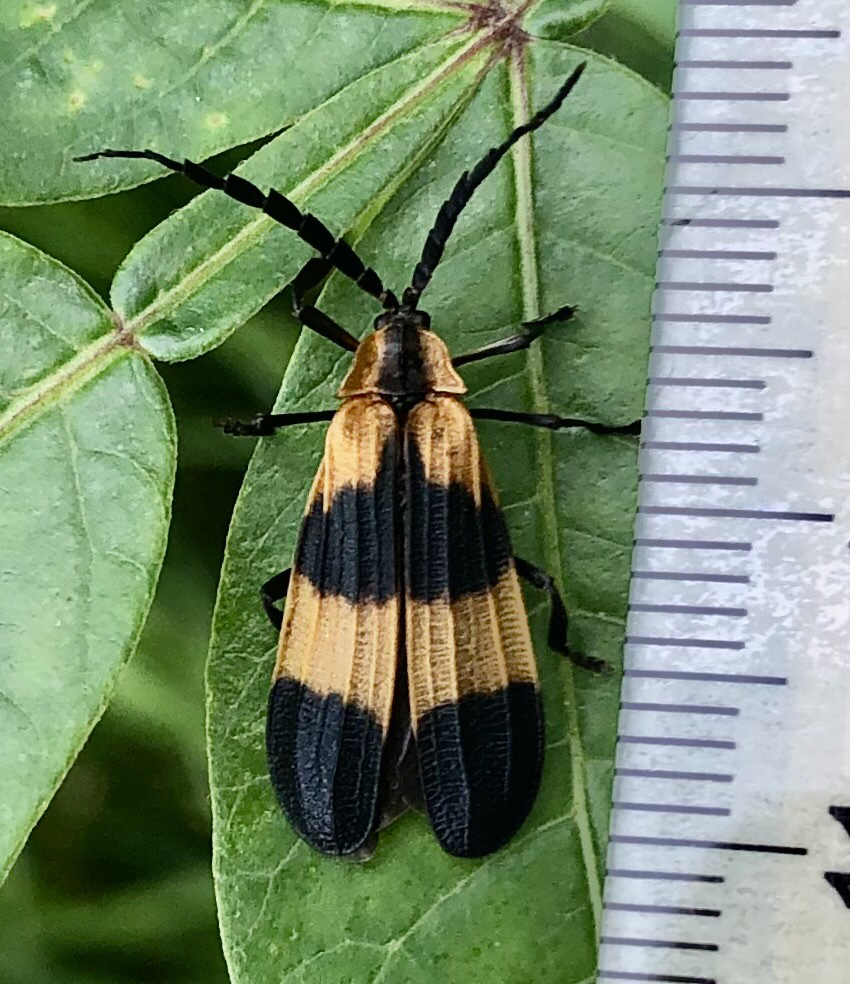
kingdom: Animalia
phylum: Arthropoda
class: Insecta
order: Coleoptera
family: Lycidae
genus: Calopteron
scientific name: Calopteron reticulatum
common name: Banded net-winged beetle
